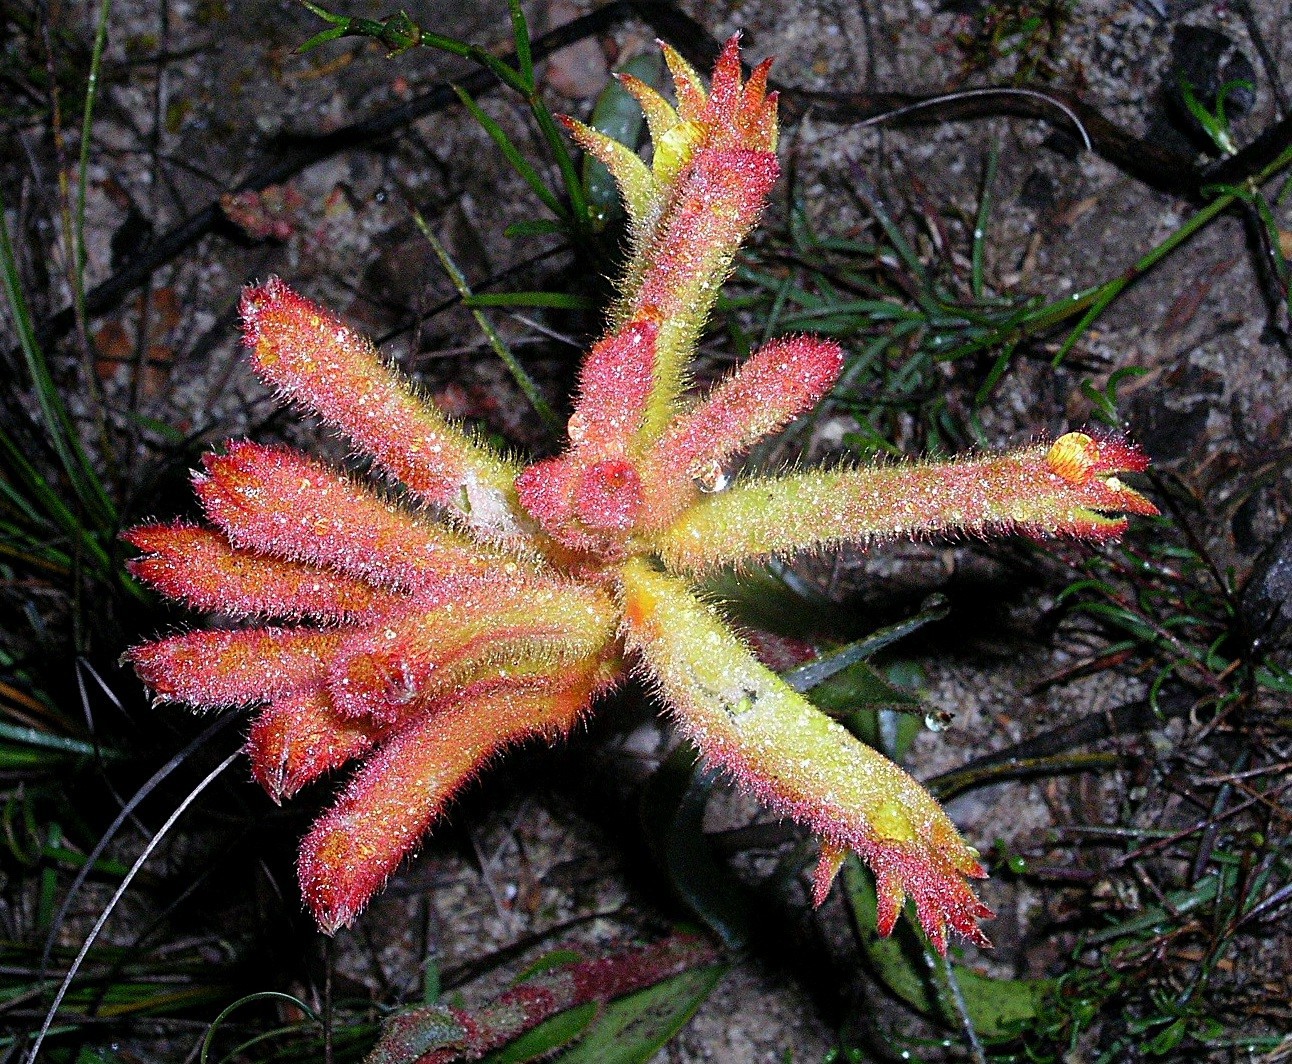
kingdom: Plantae
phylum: Tracheophyta
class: Liliopsida
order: Commelinales
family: Haemodoraceae
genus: Anigozanthos
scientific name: Anigozanthos humilis
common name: Cat's-paw
